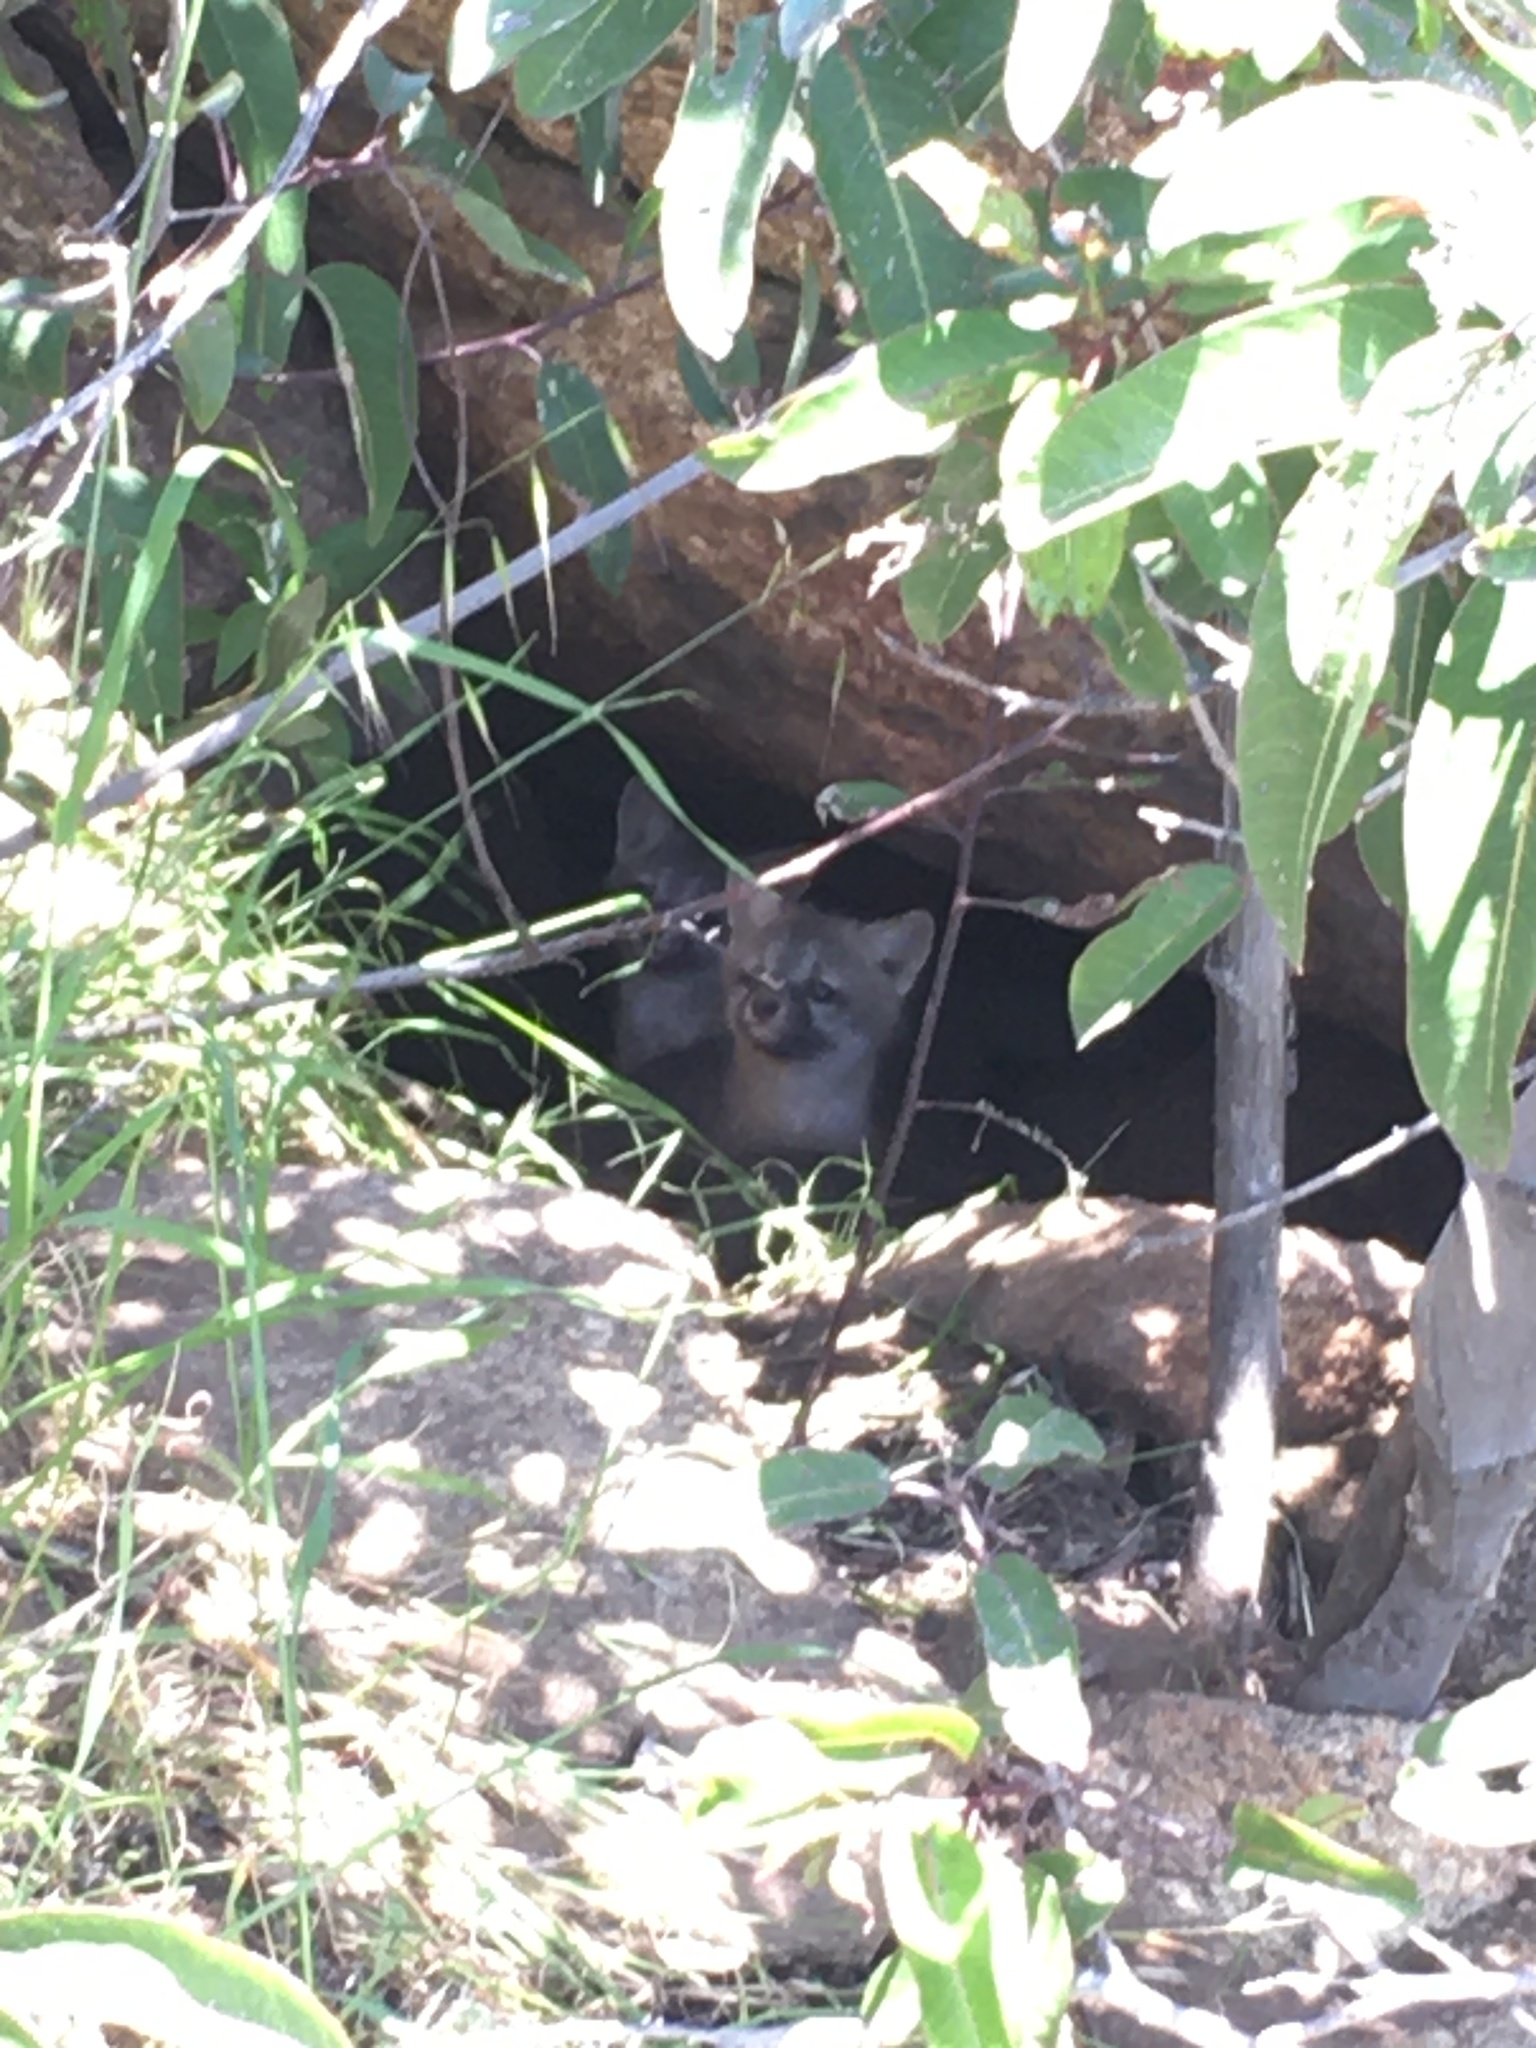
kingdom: Animalia
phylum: Chordata
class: Mammalia
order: Carnivora
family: Canidae
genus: Urocyon
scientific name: Urocyon cinereoargenteus
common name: Gray fox
